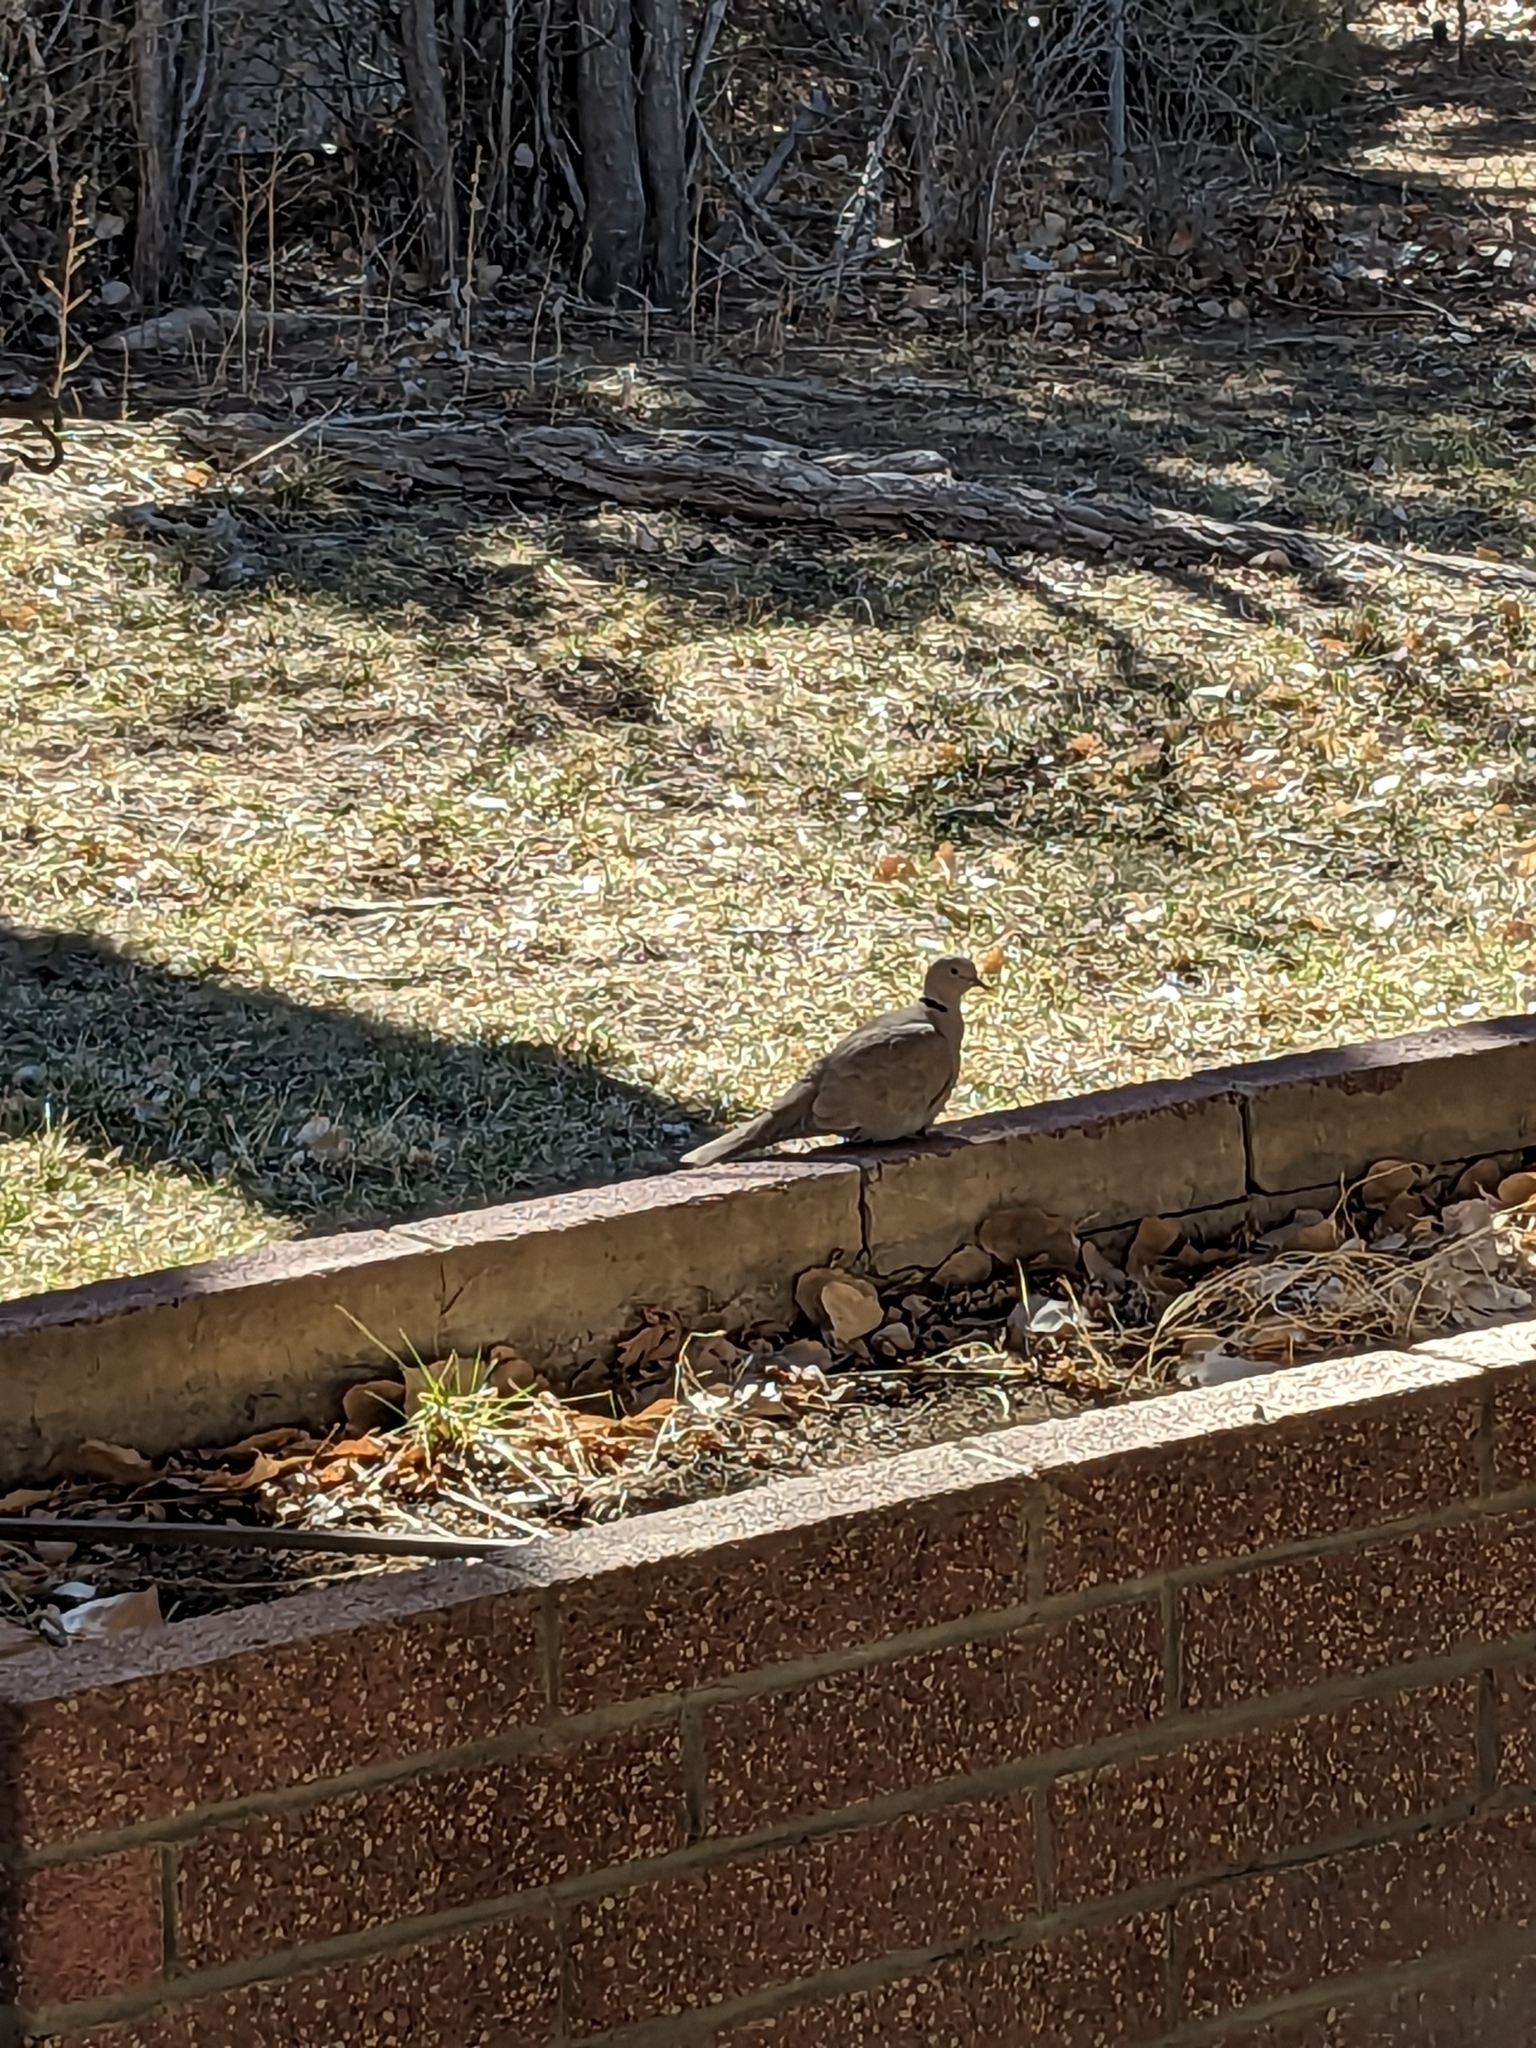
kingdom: Animalia
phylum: Chordata
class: Aves
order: Columbiformes
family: Columbidae
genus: Streptopelia
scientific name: Streptopelia decaocto
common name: Eurasian collared dove
